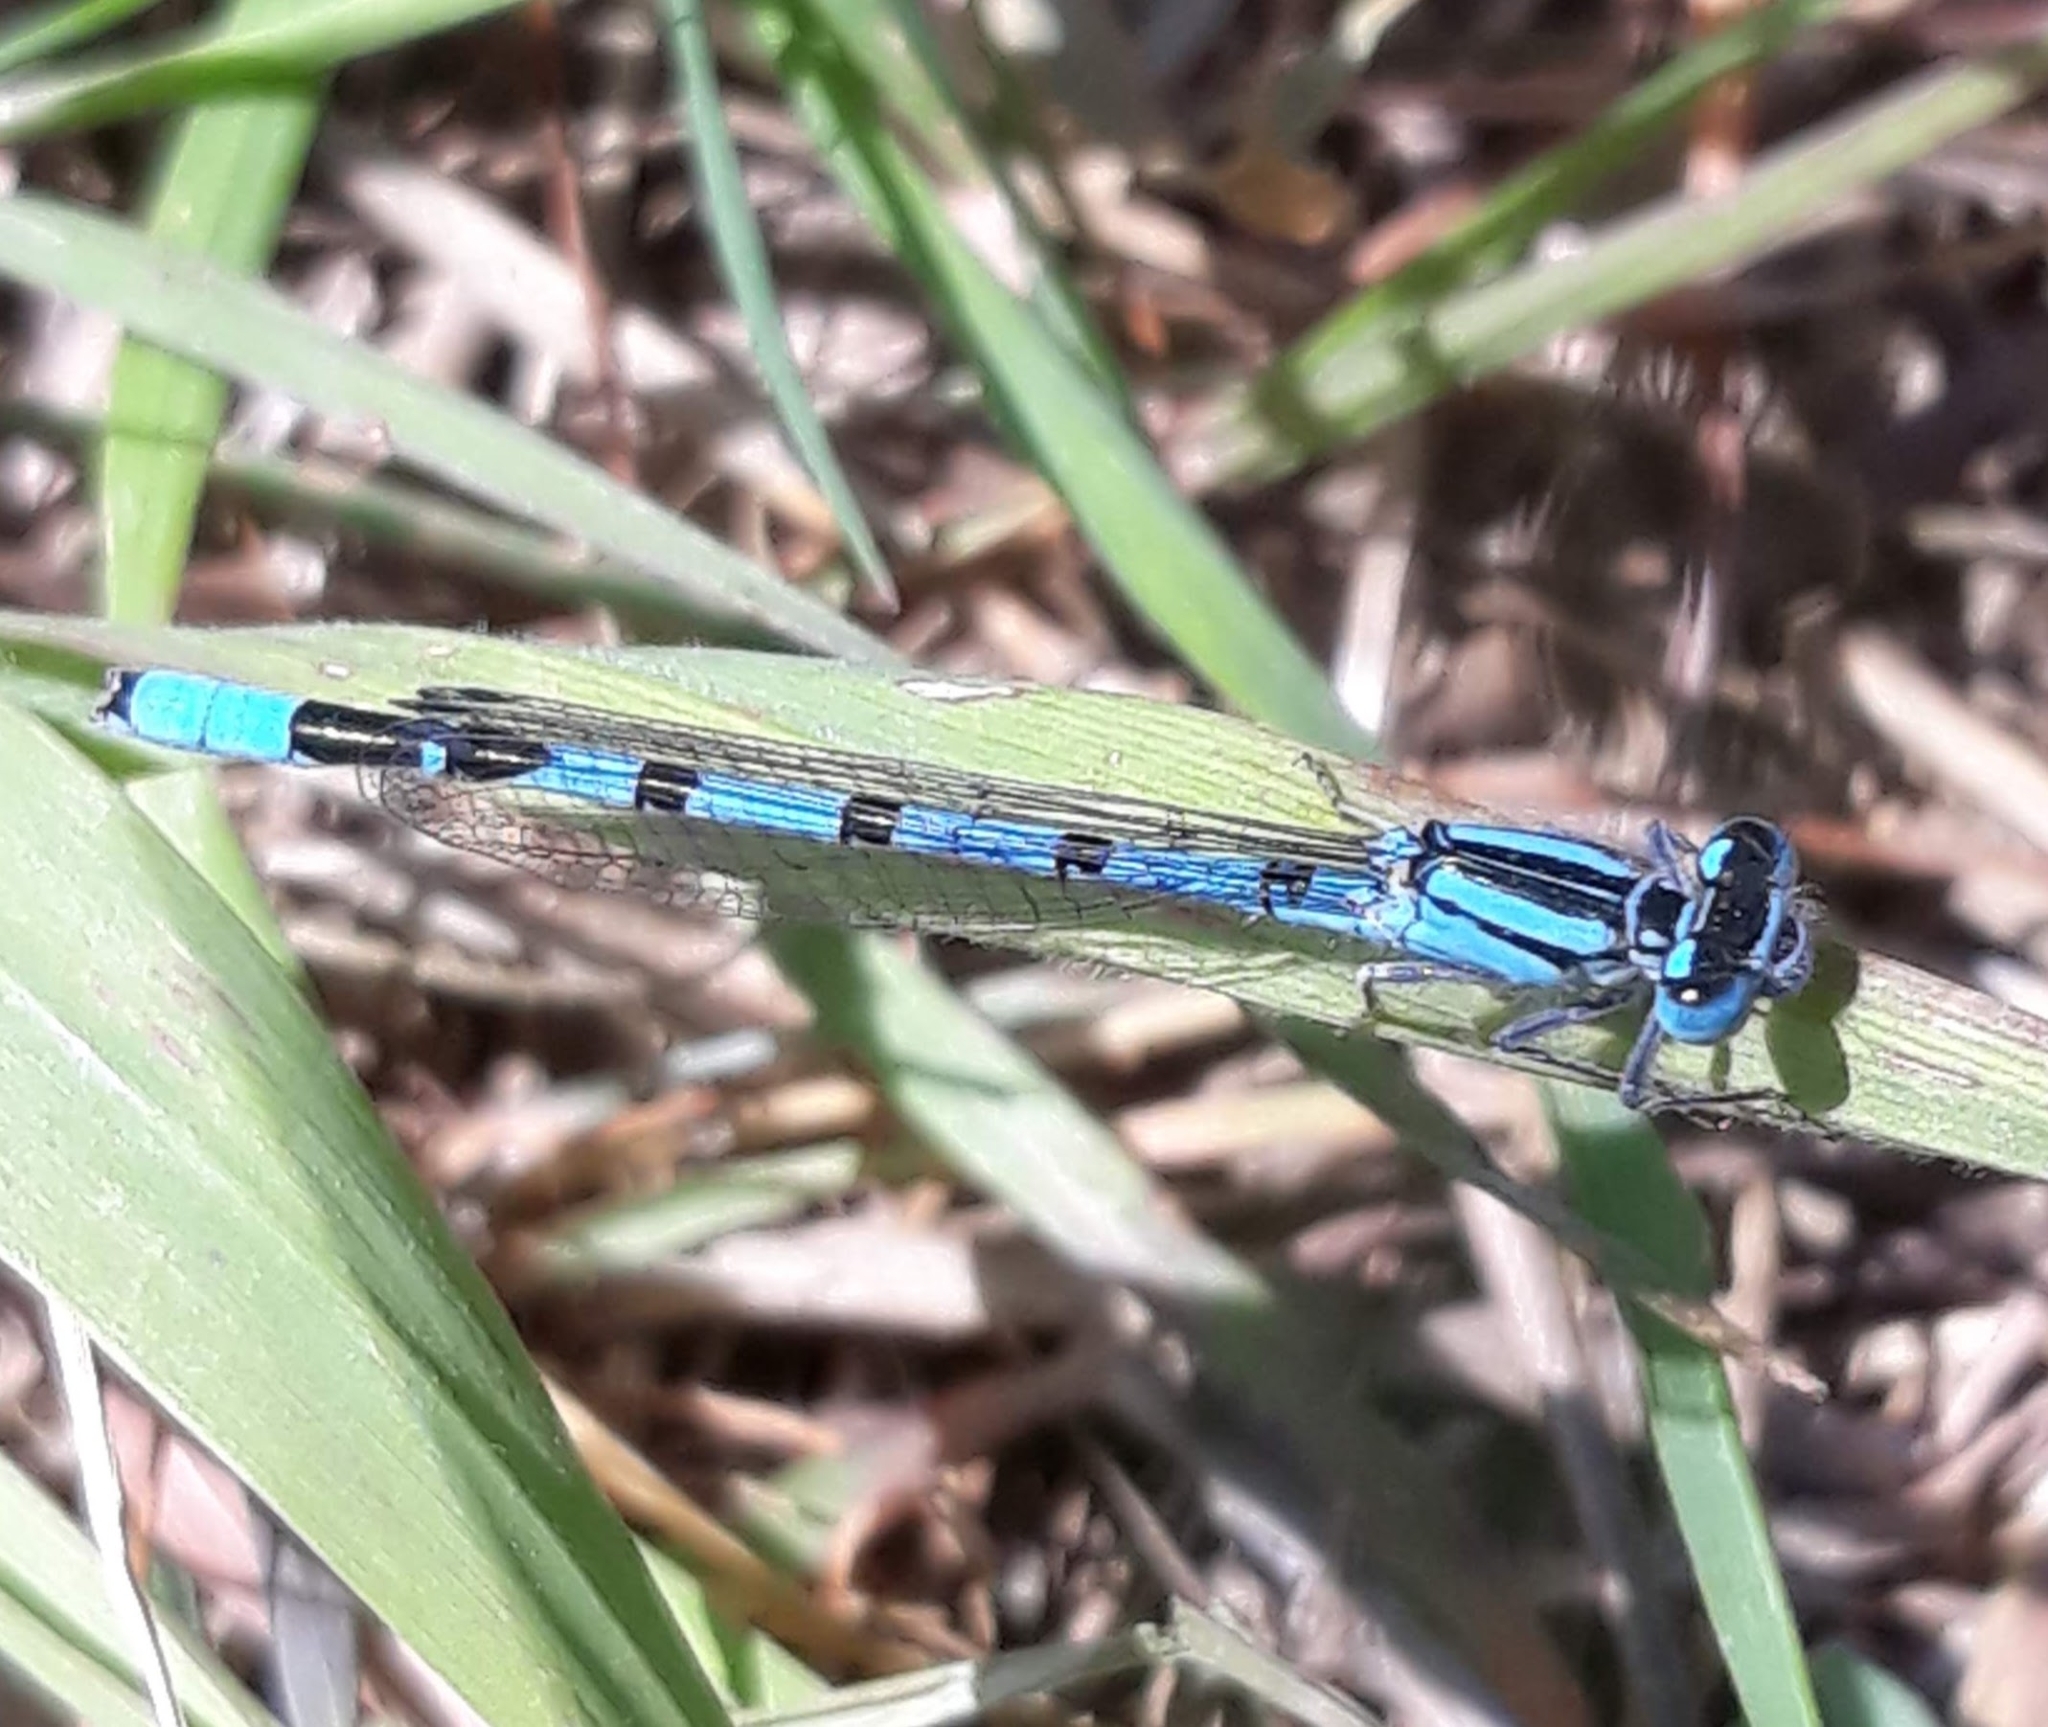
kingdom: Animalia
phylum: Arthropoda
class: Insecta
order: Odonata
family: Coenagrionidae
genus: Enallagma
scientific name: Enallagma cyathigerum
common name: Common blue damselfly
